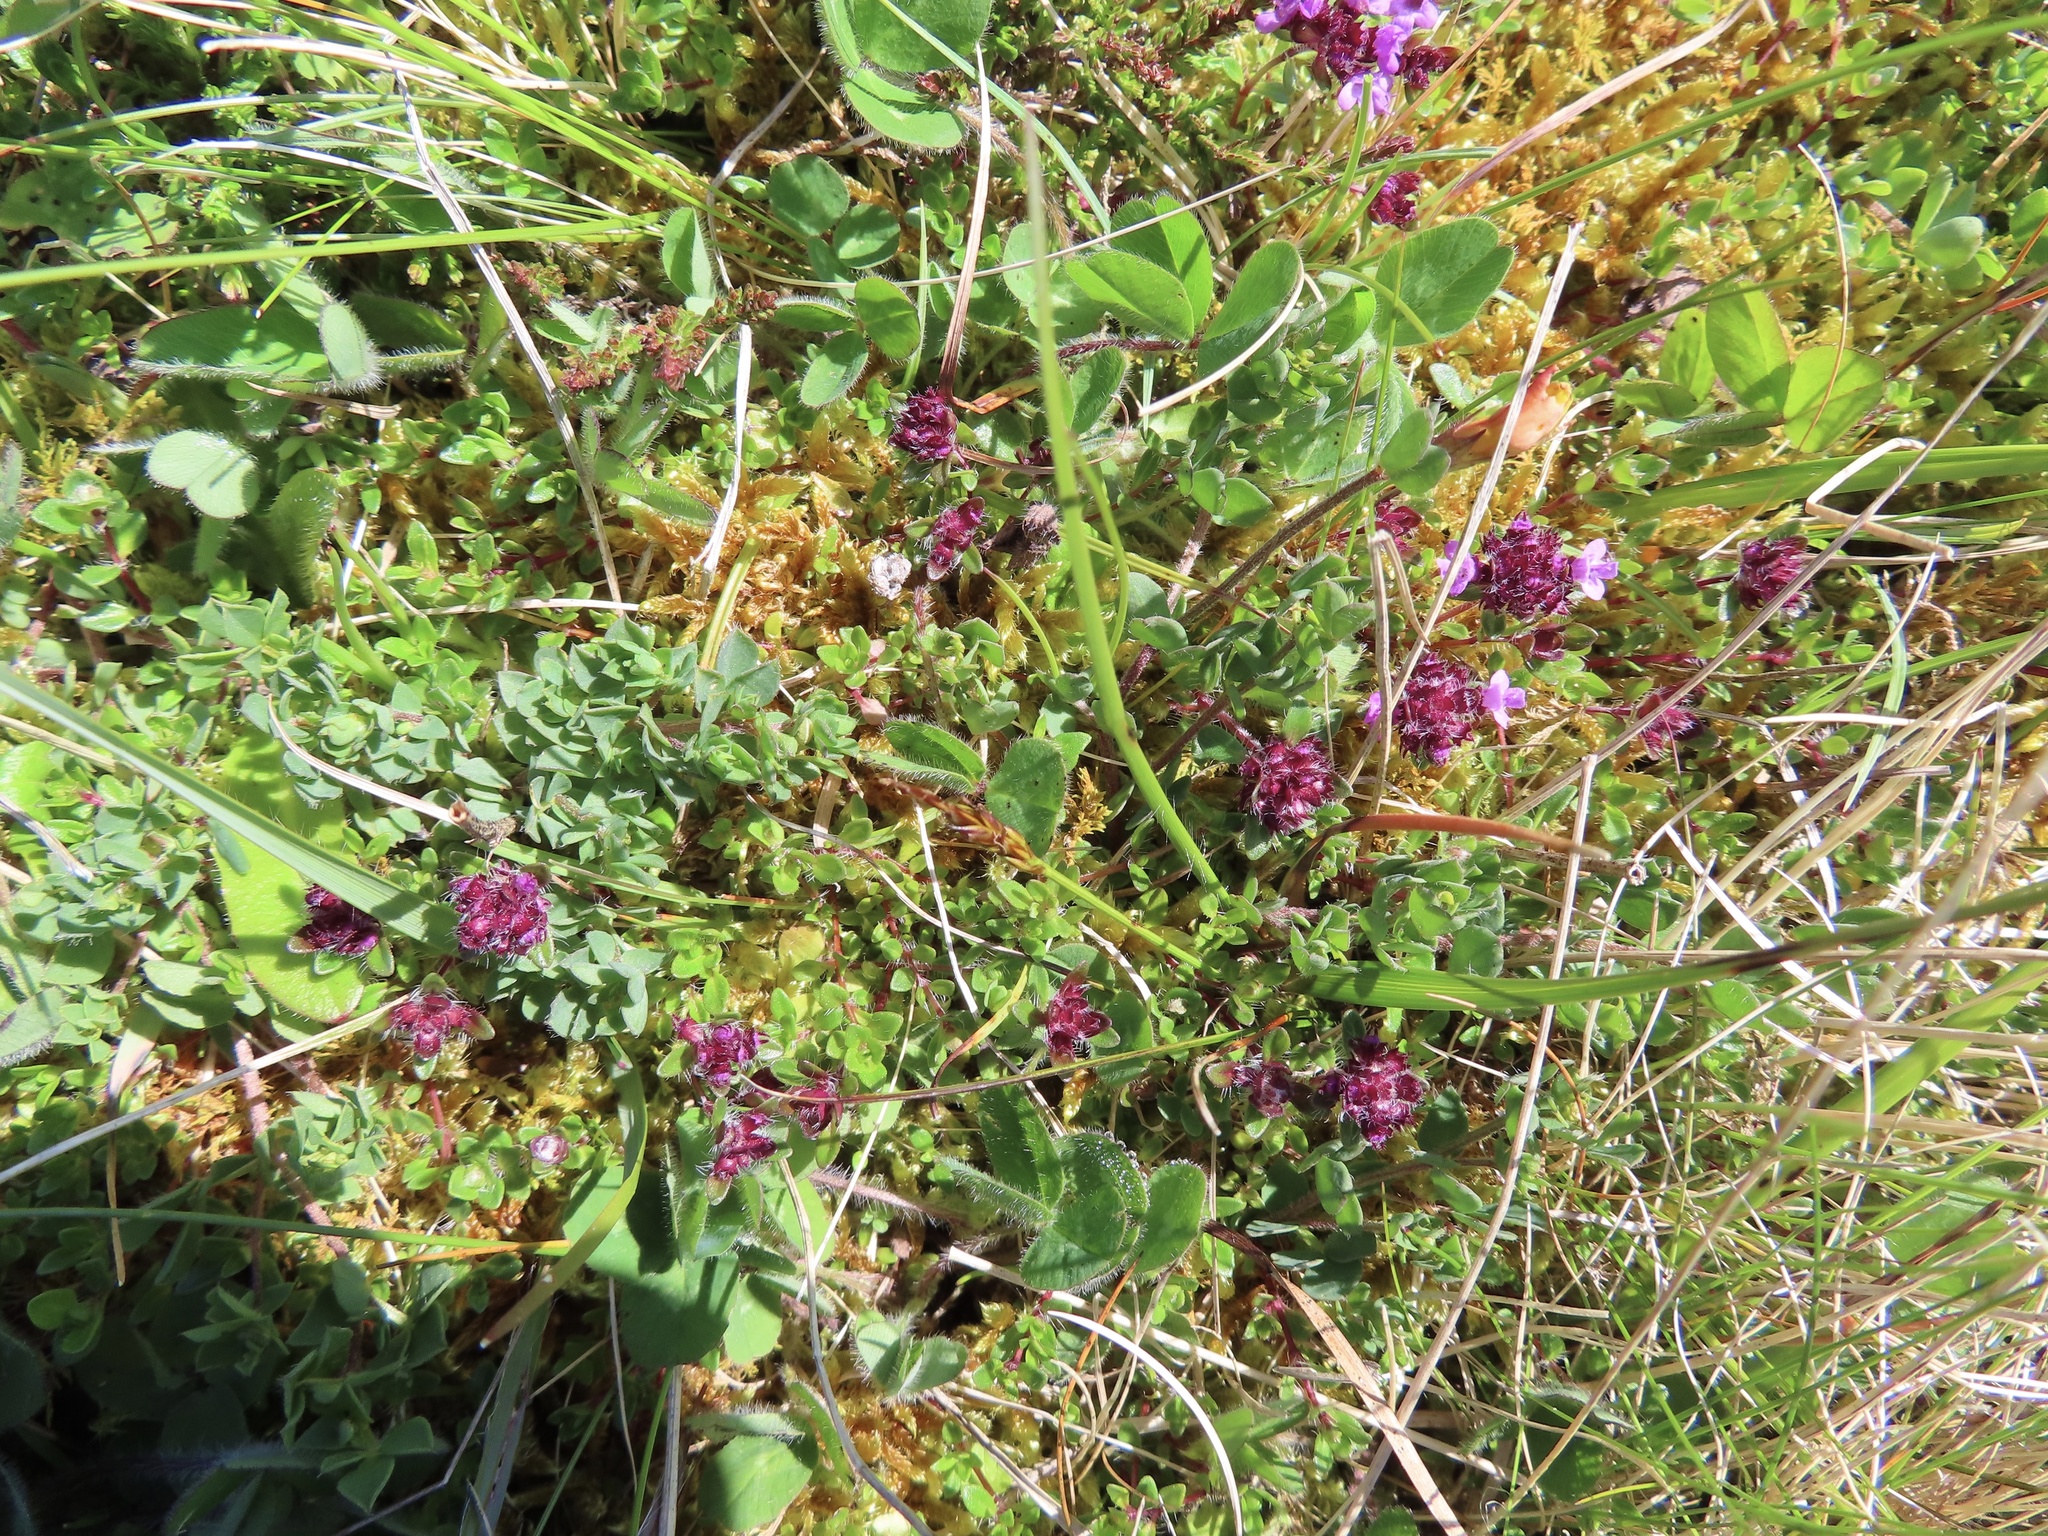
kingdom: Plantae
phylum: Tracheophyta
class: Magnoliopsida
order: Lamiales
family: Lamiaceae
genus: Thymus
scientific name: Thymus praecox
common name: Wild thyme
